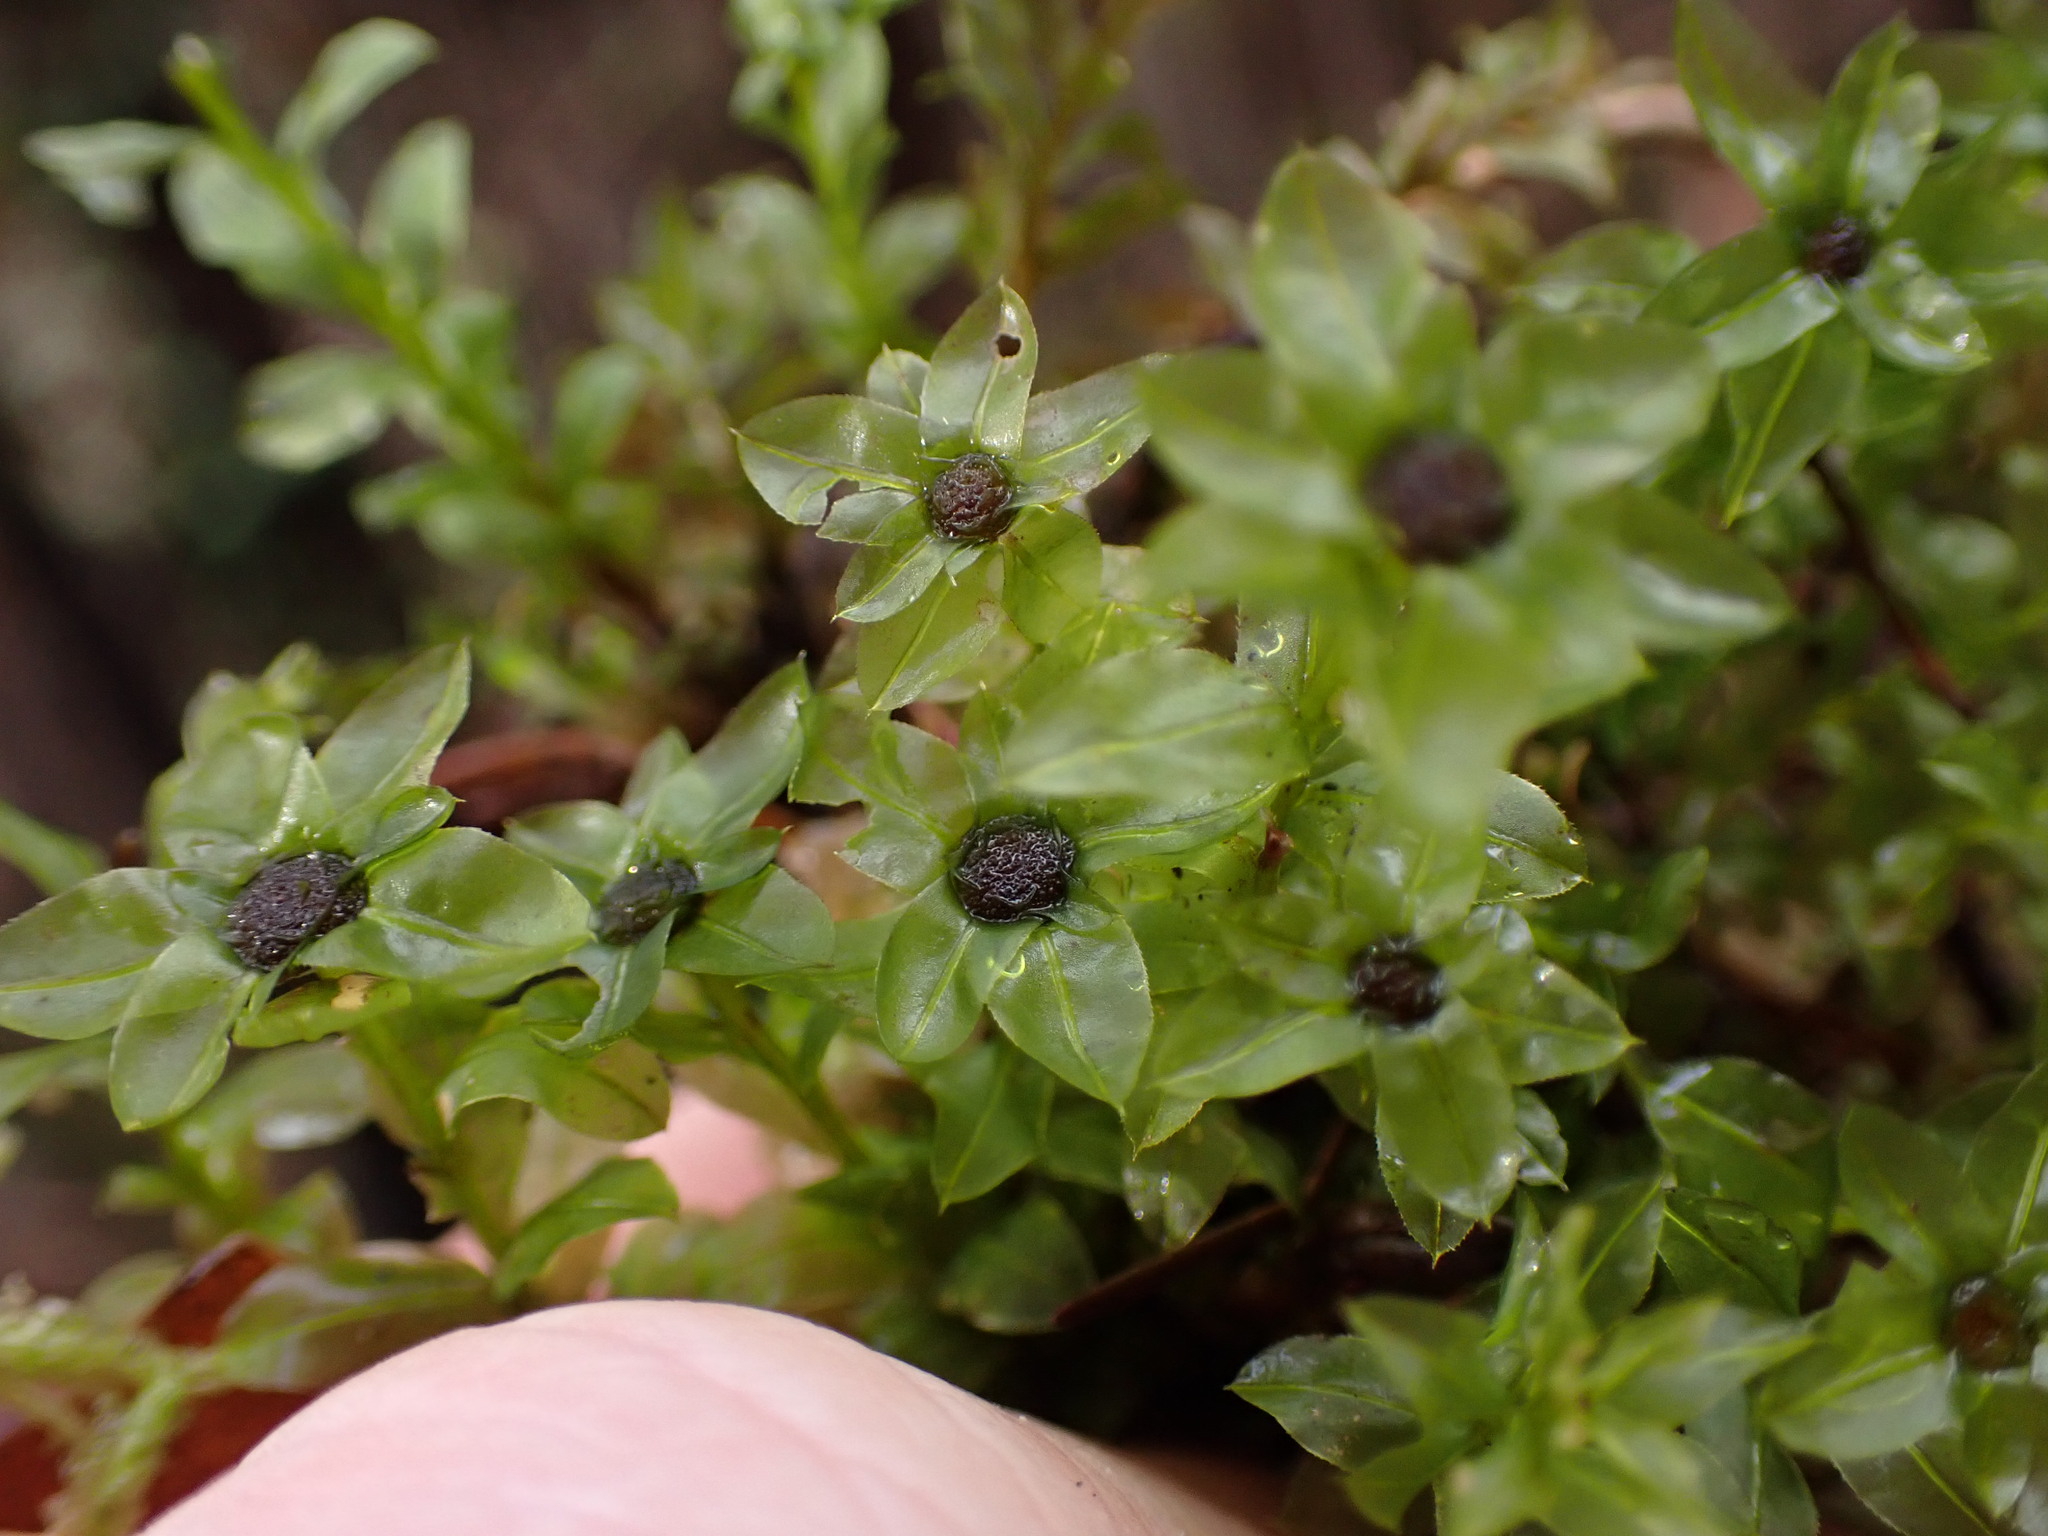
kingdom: Plantae
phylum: Bryophyta
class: Bryopsida
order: Bryales
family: Mniaceae
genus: Plagiomnium
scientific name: Plagiomnium insigne
